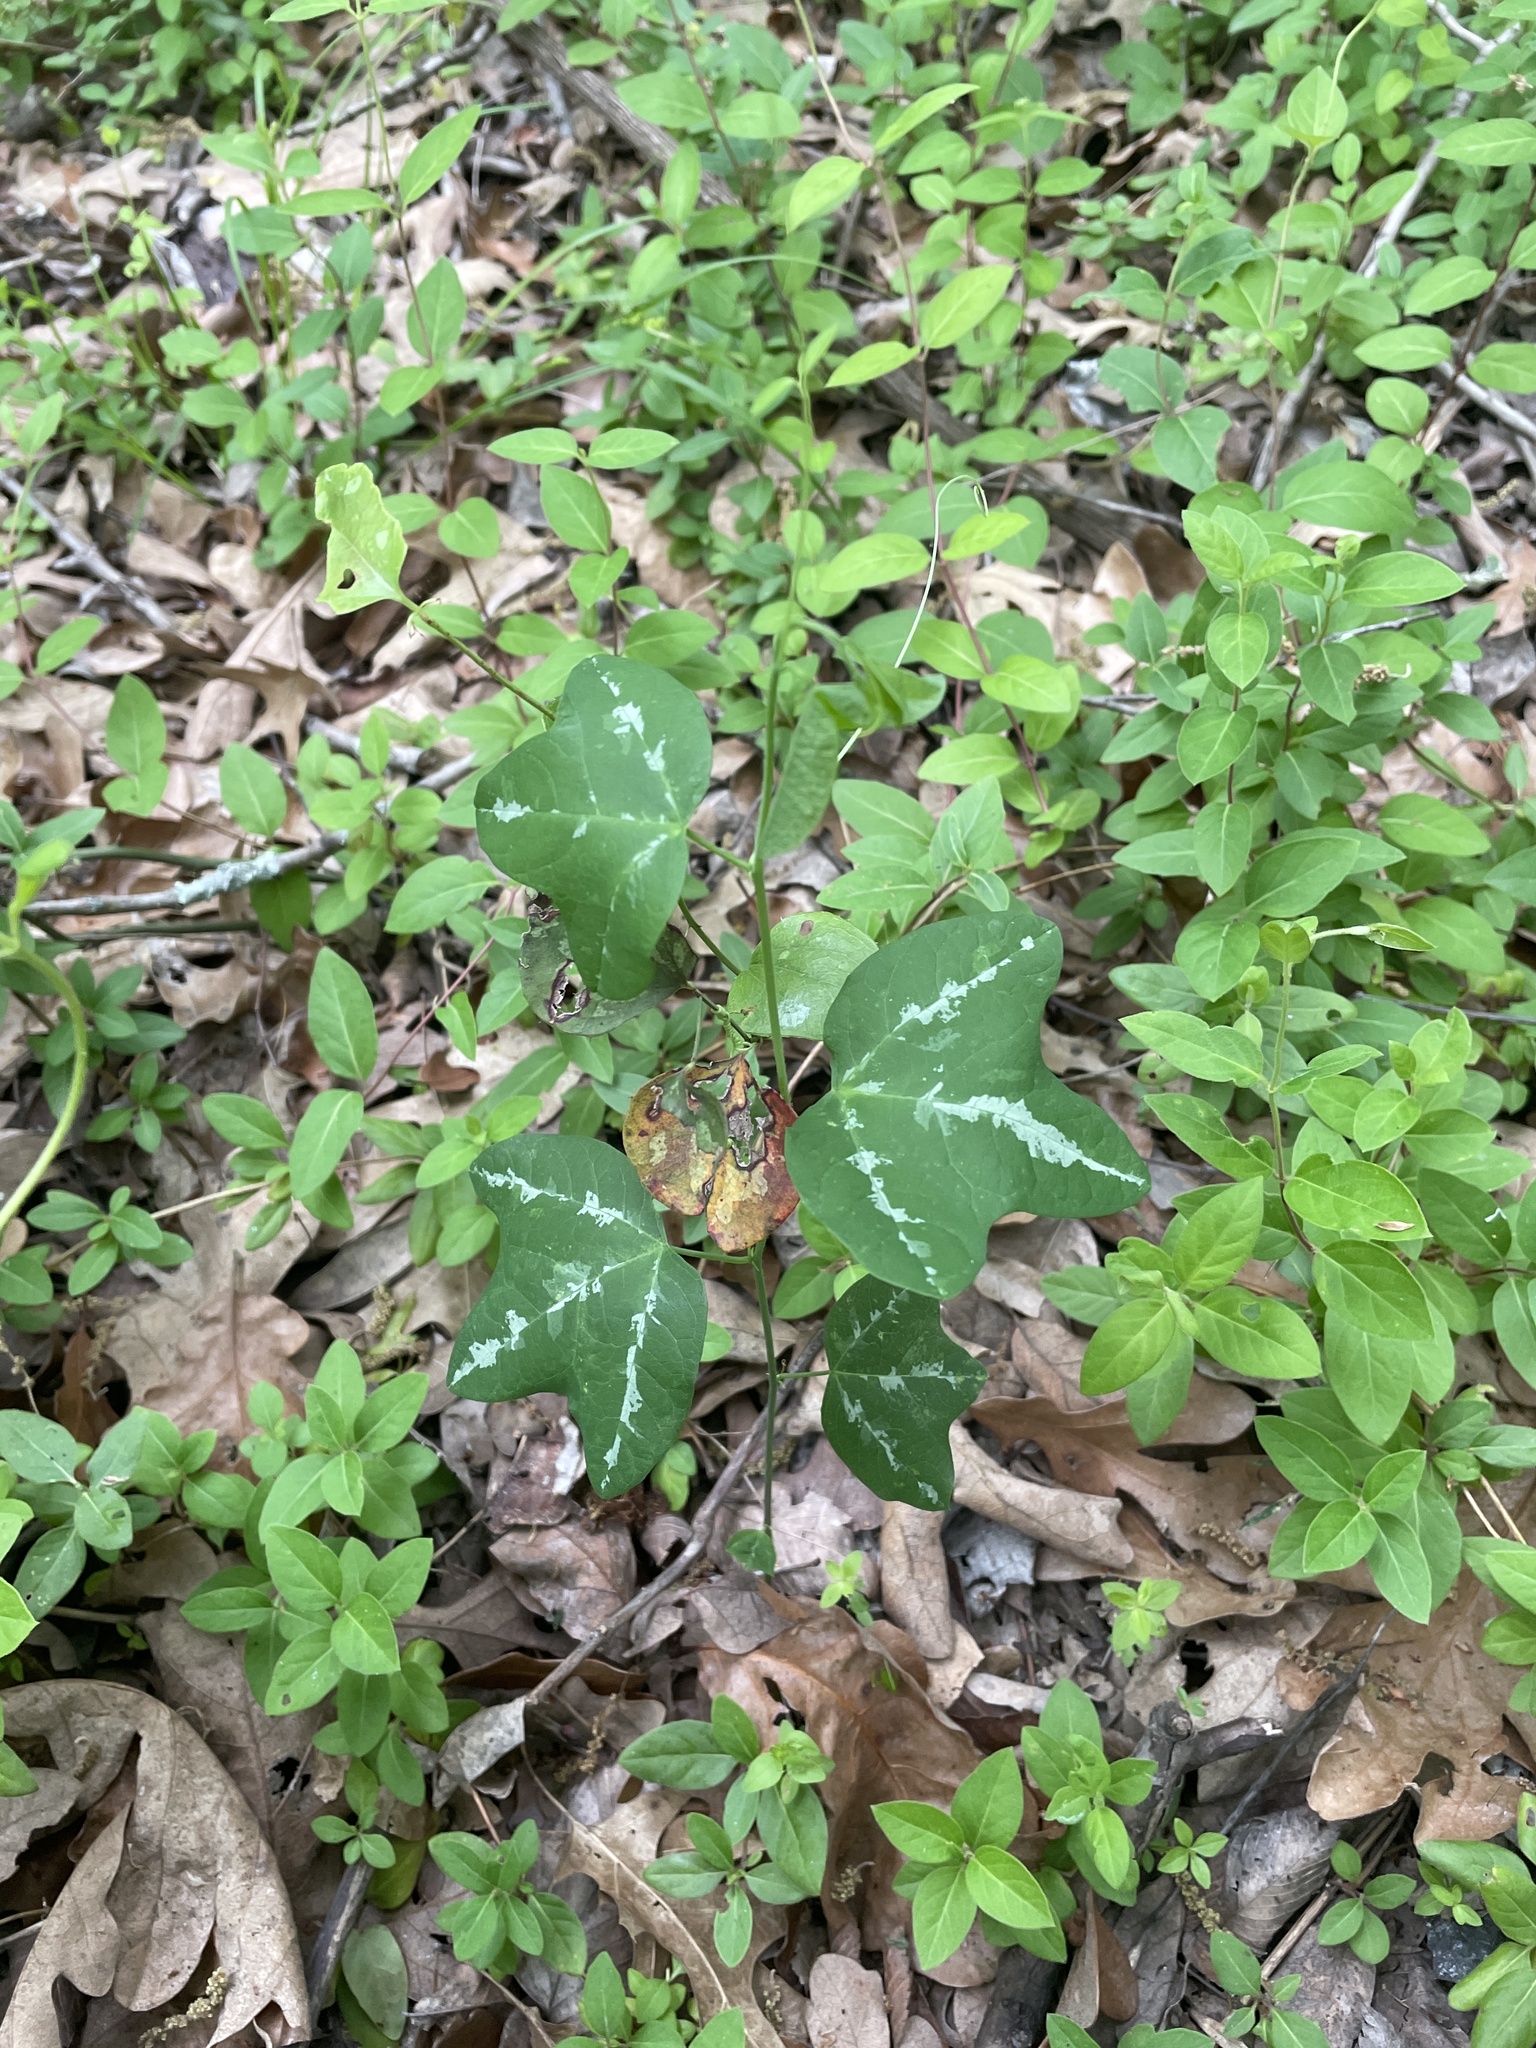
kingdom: Plantae
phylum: Tracheophyta
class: Magnoliopsida
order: Malpighiales
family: Passifloraceae
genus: Passiflora
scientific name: Passiflora lutea
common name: Yellow passionflower
